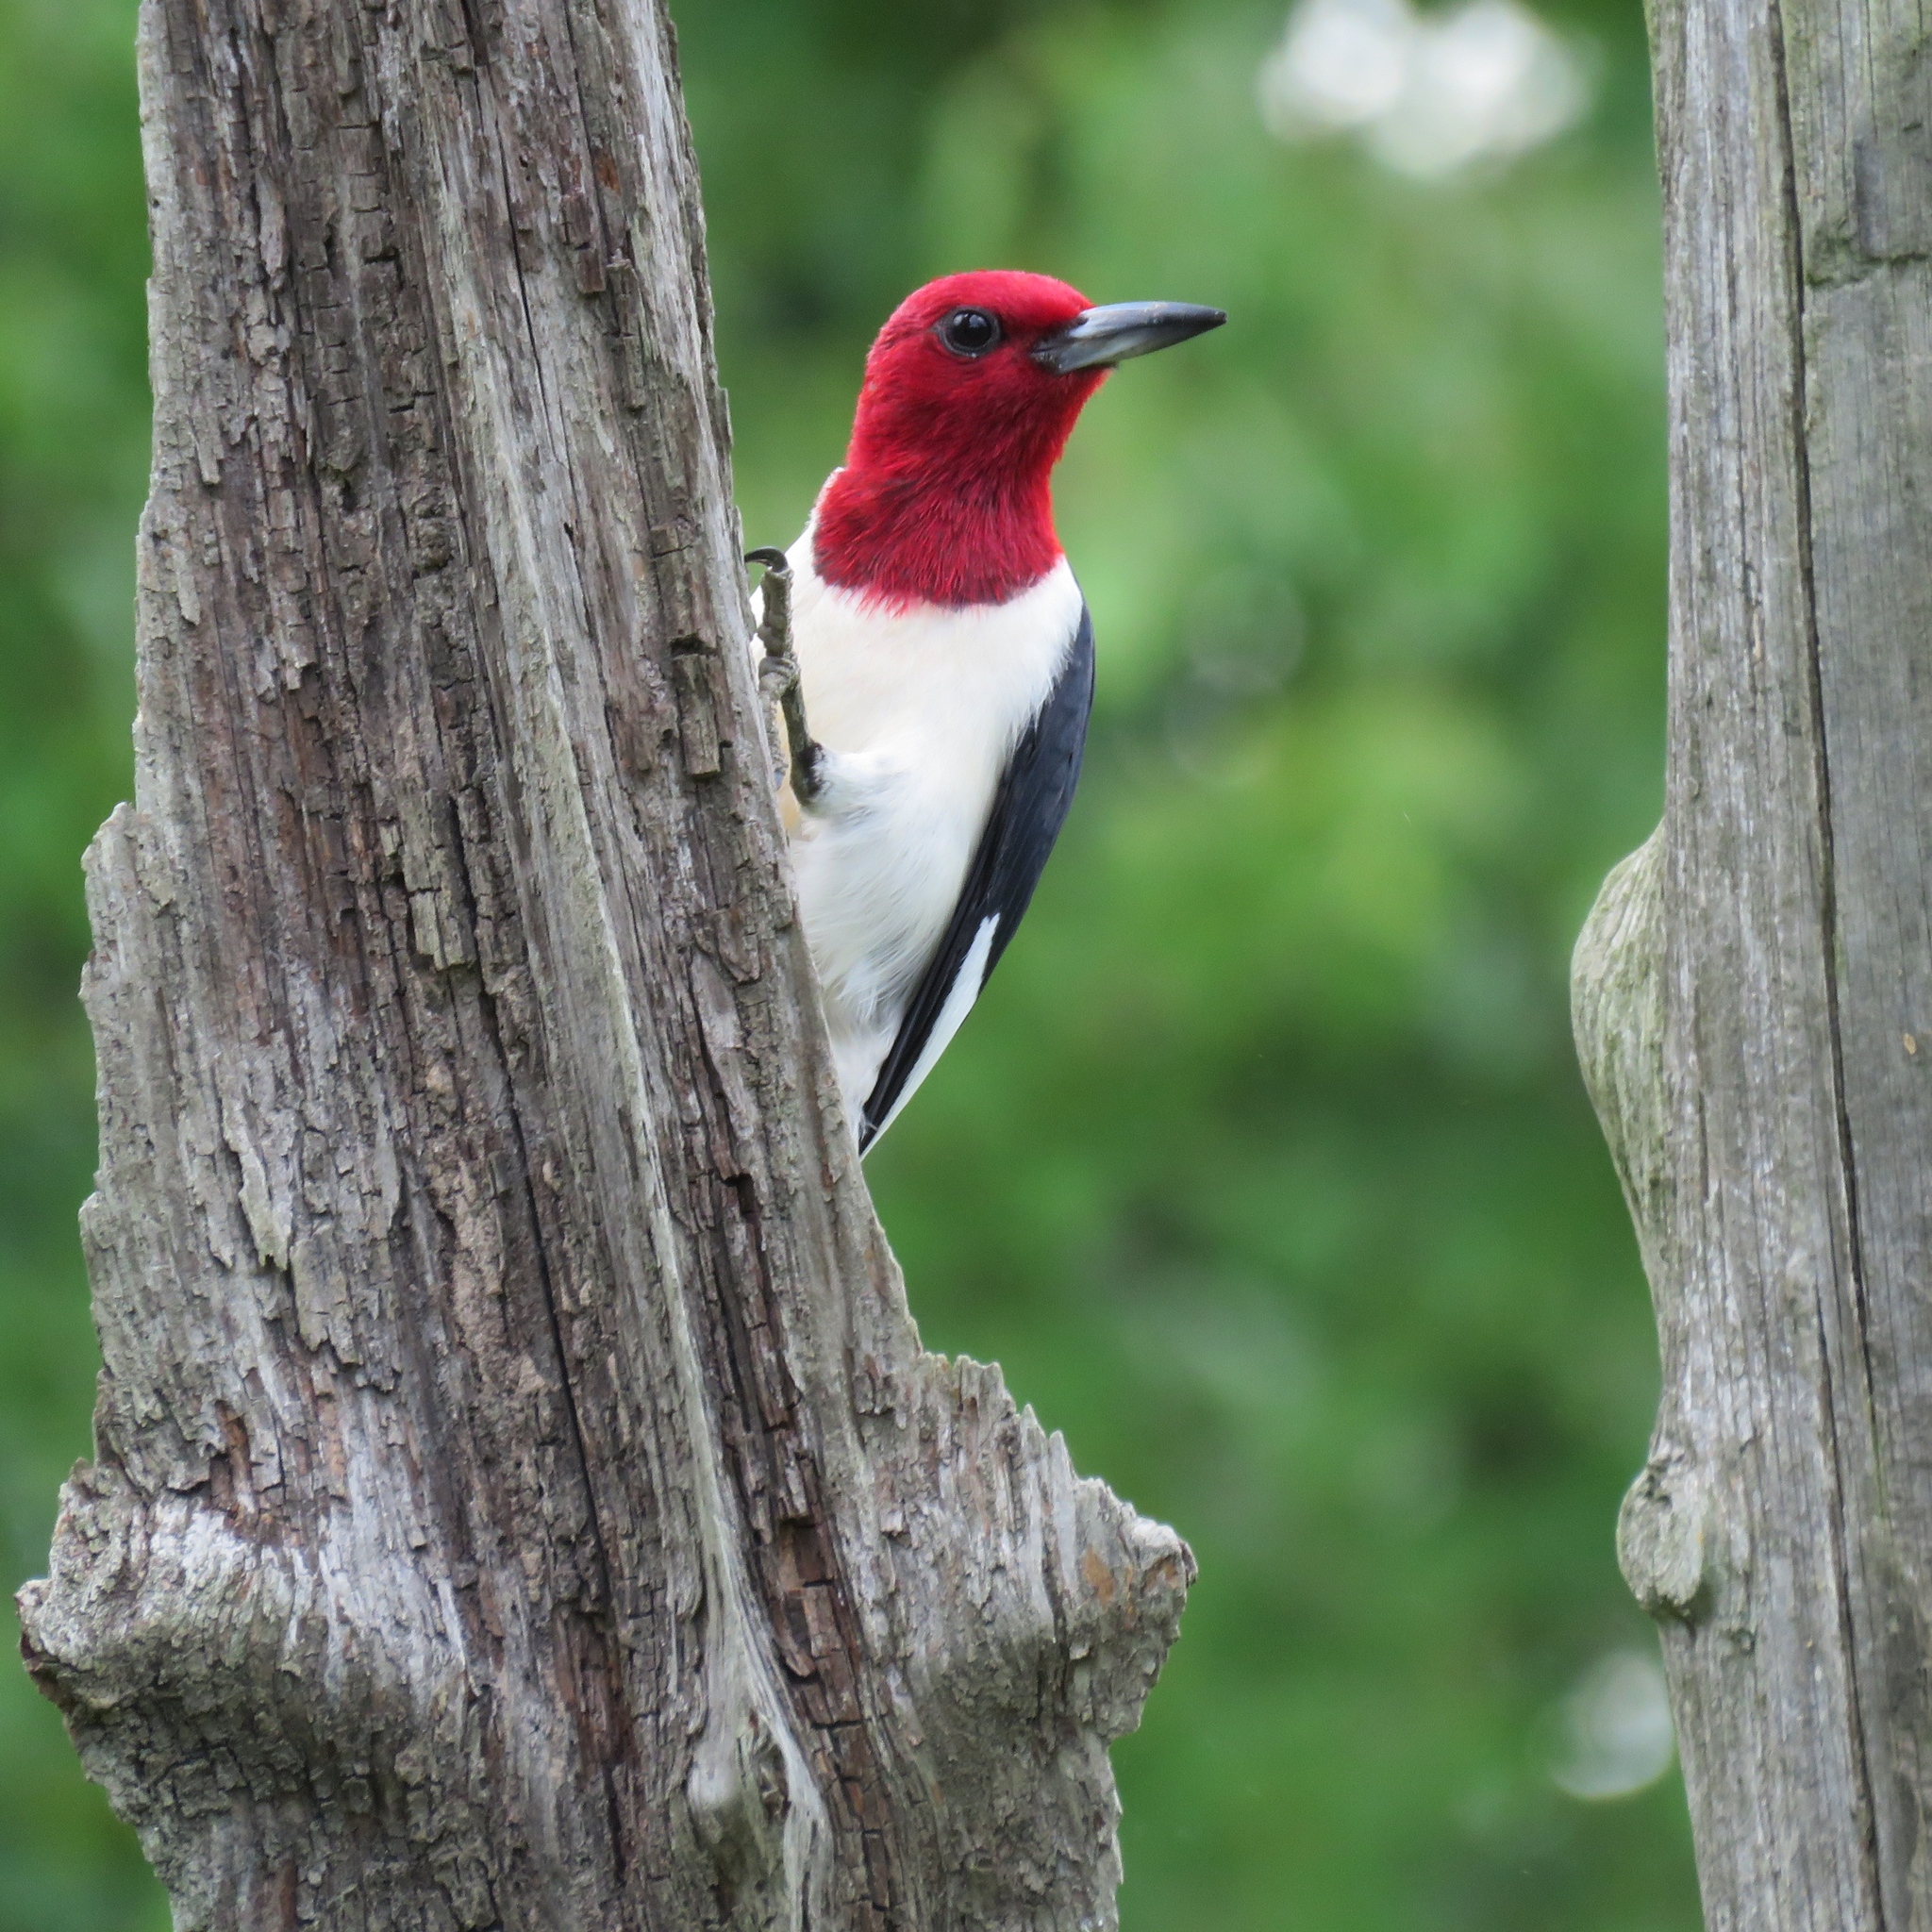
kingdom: Animalia
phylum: Chordata
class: Aves
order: Piciformes
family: Picidae
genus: Melanerpes
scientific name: Melanerpes erythrocephalus
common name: Red-headed woodpecker
